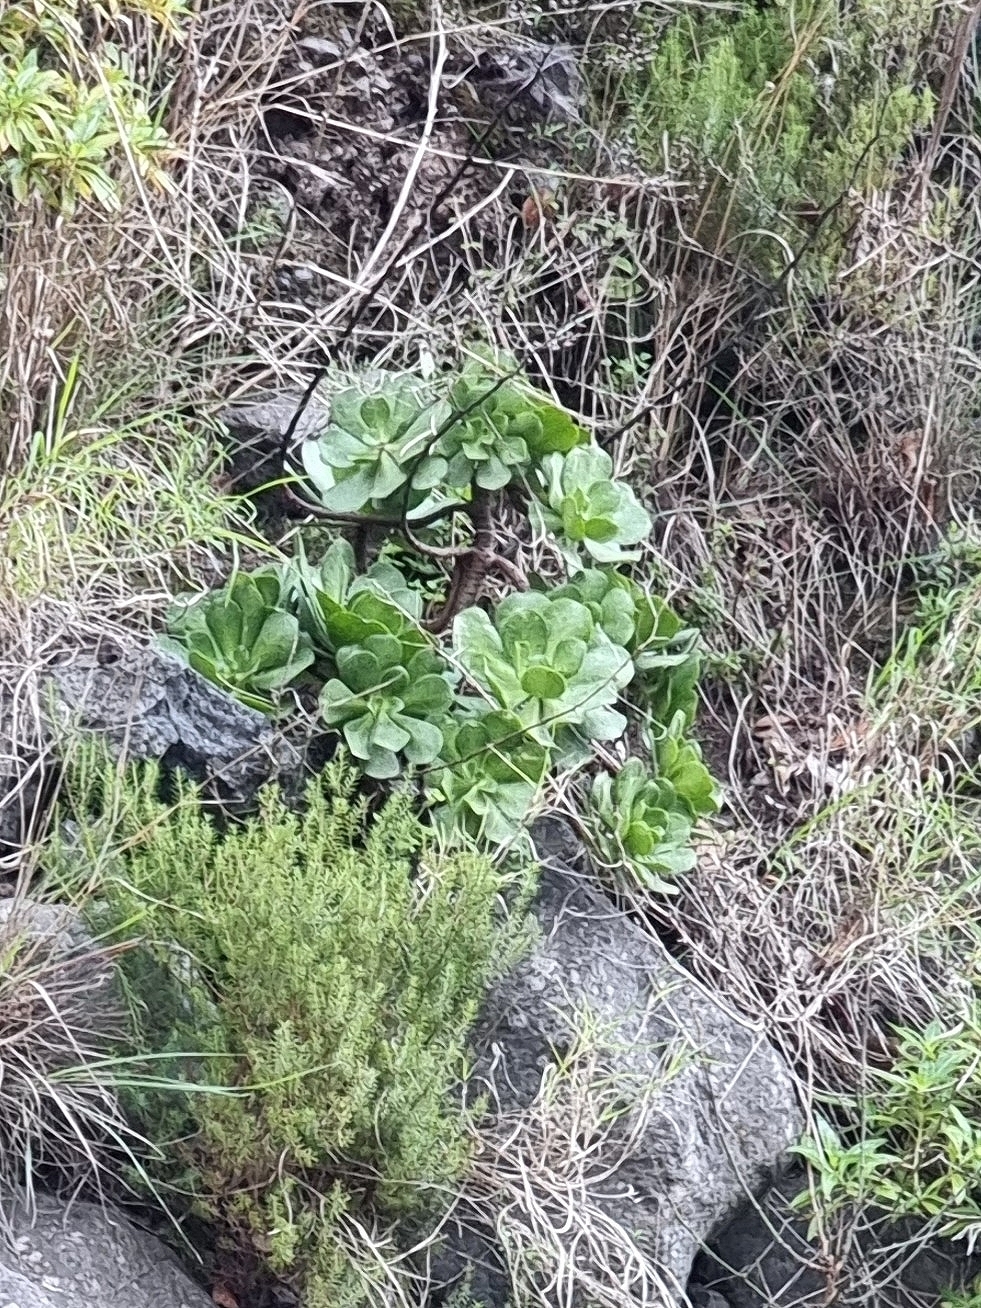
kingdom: Plantae
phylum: Tracheophyta
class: Magnoliopsida
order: Saxifragales
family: Crassulaceae
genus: Aeonium
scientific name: Aeonium glutinosum
